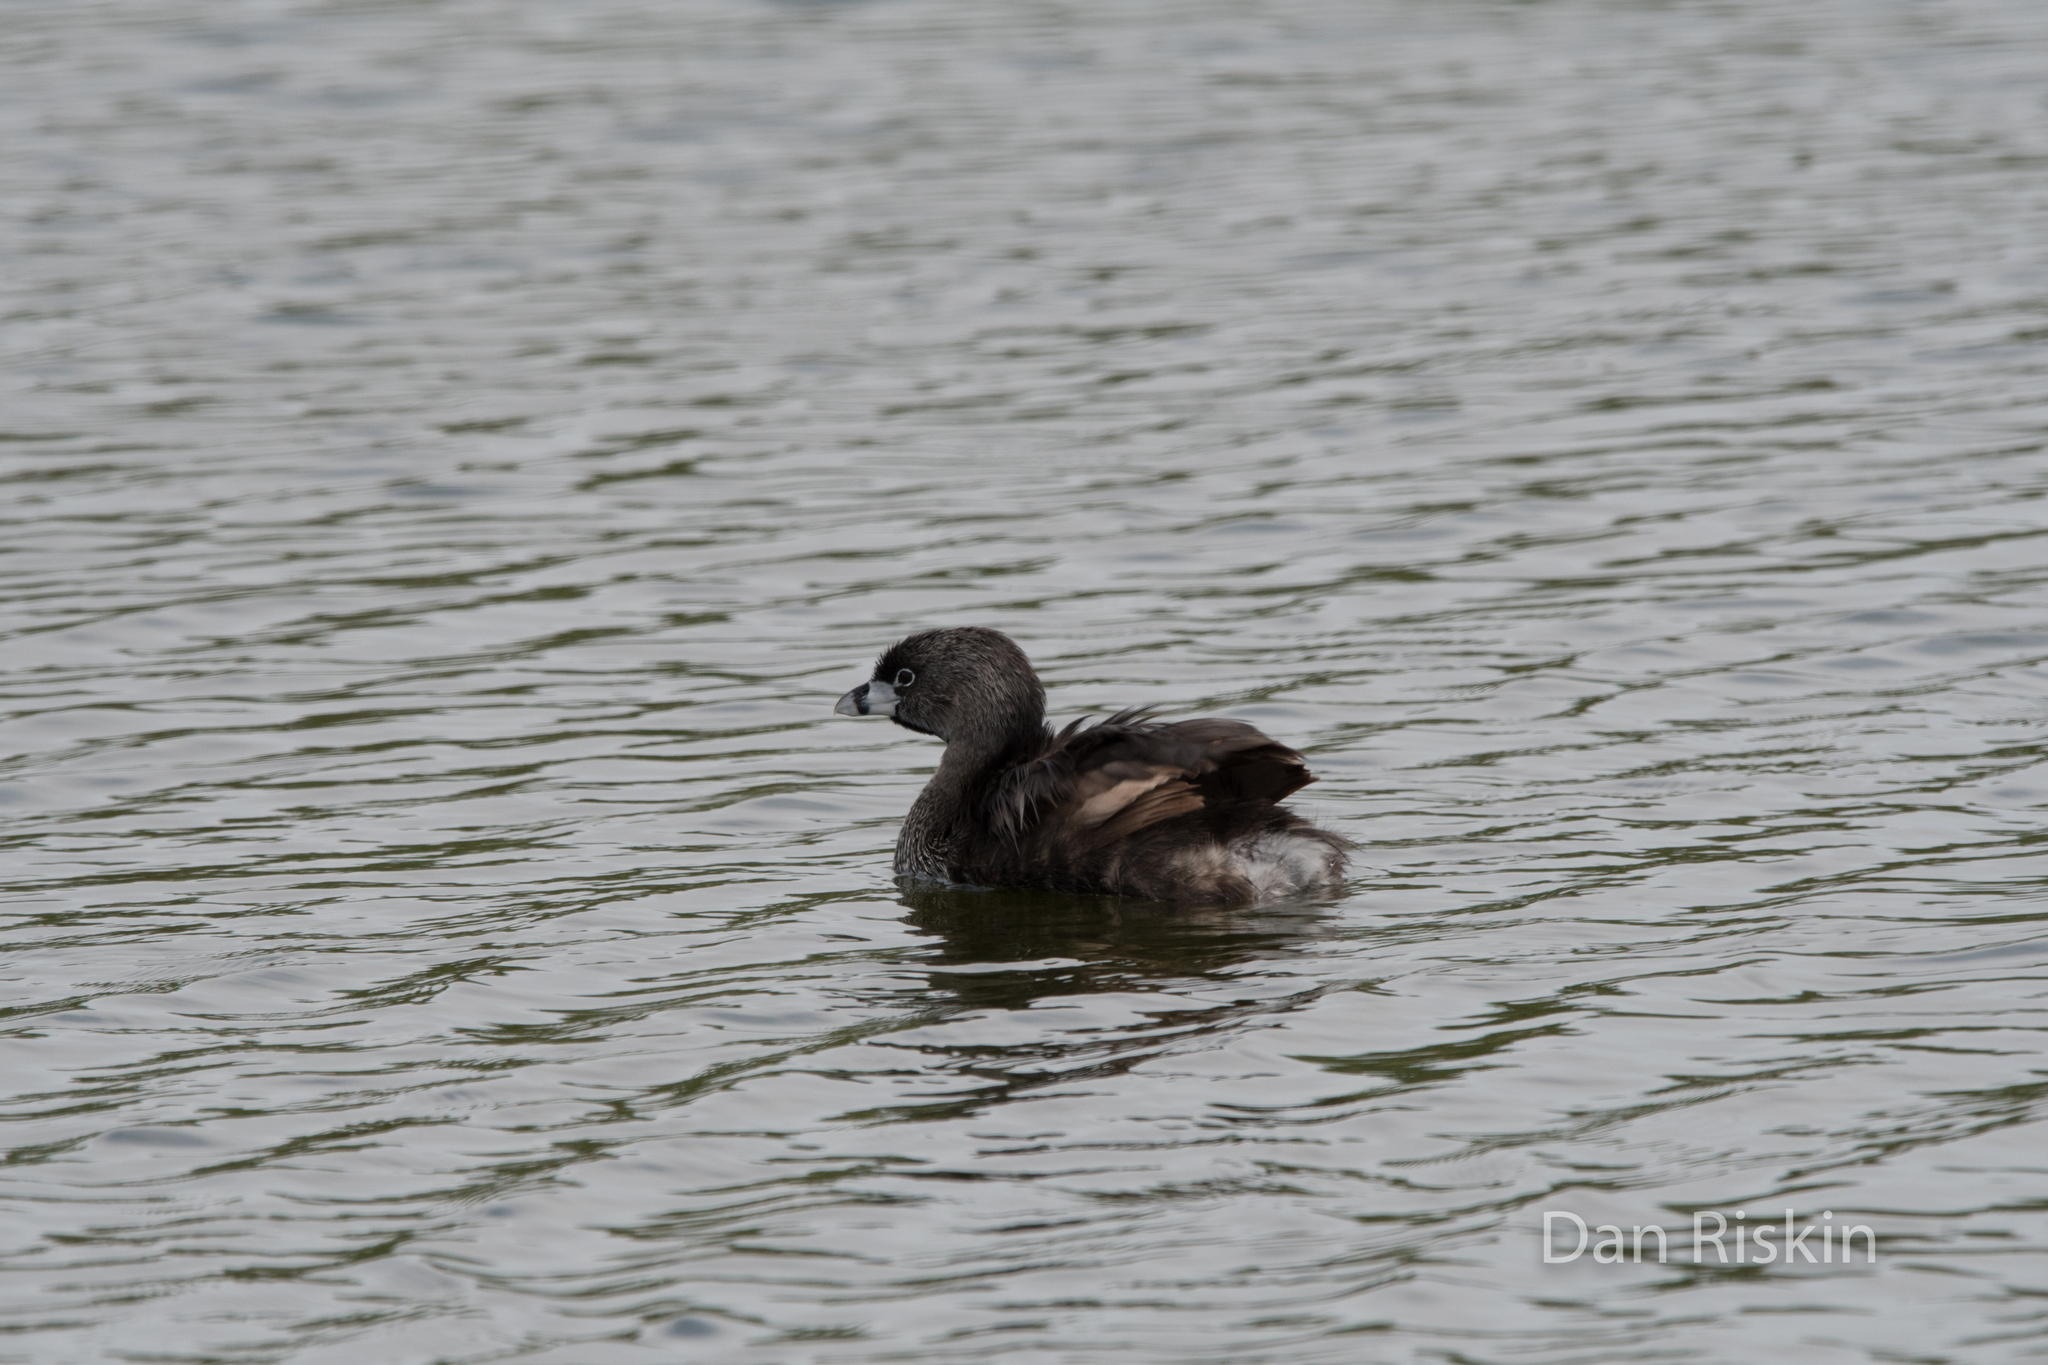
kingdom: Animalia
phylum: Chordata
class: Aves
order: Podicipediformes
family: Podicipedidae
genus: Podilymbus
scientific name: Podilymbus podiceps
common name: Pied-billed grebe
